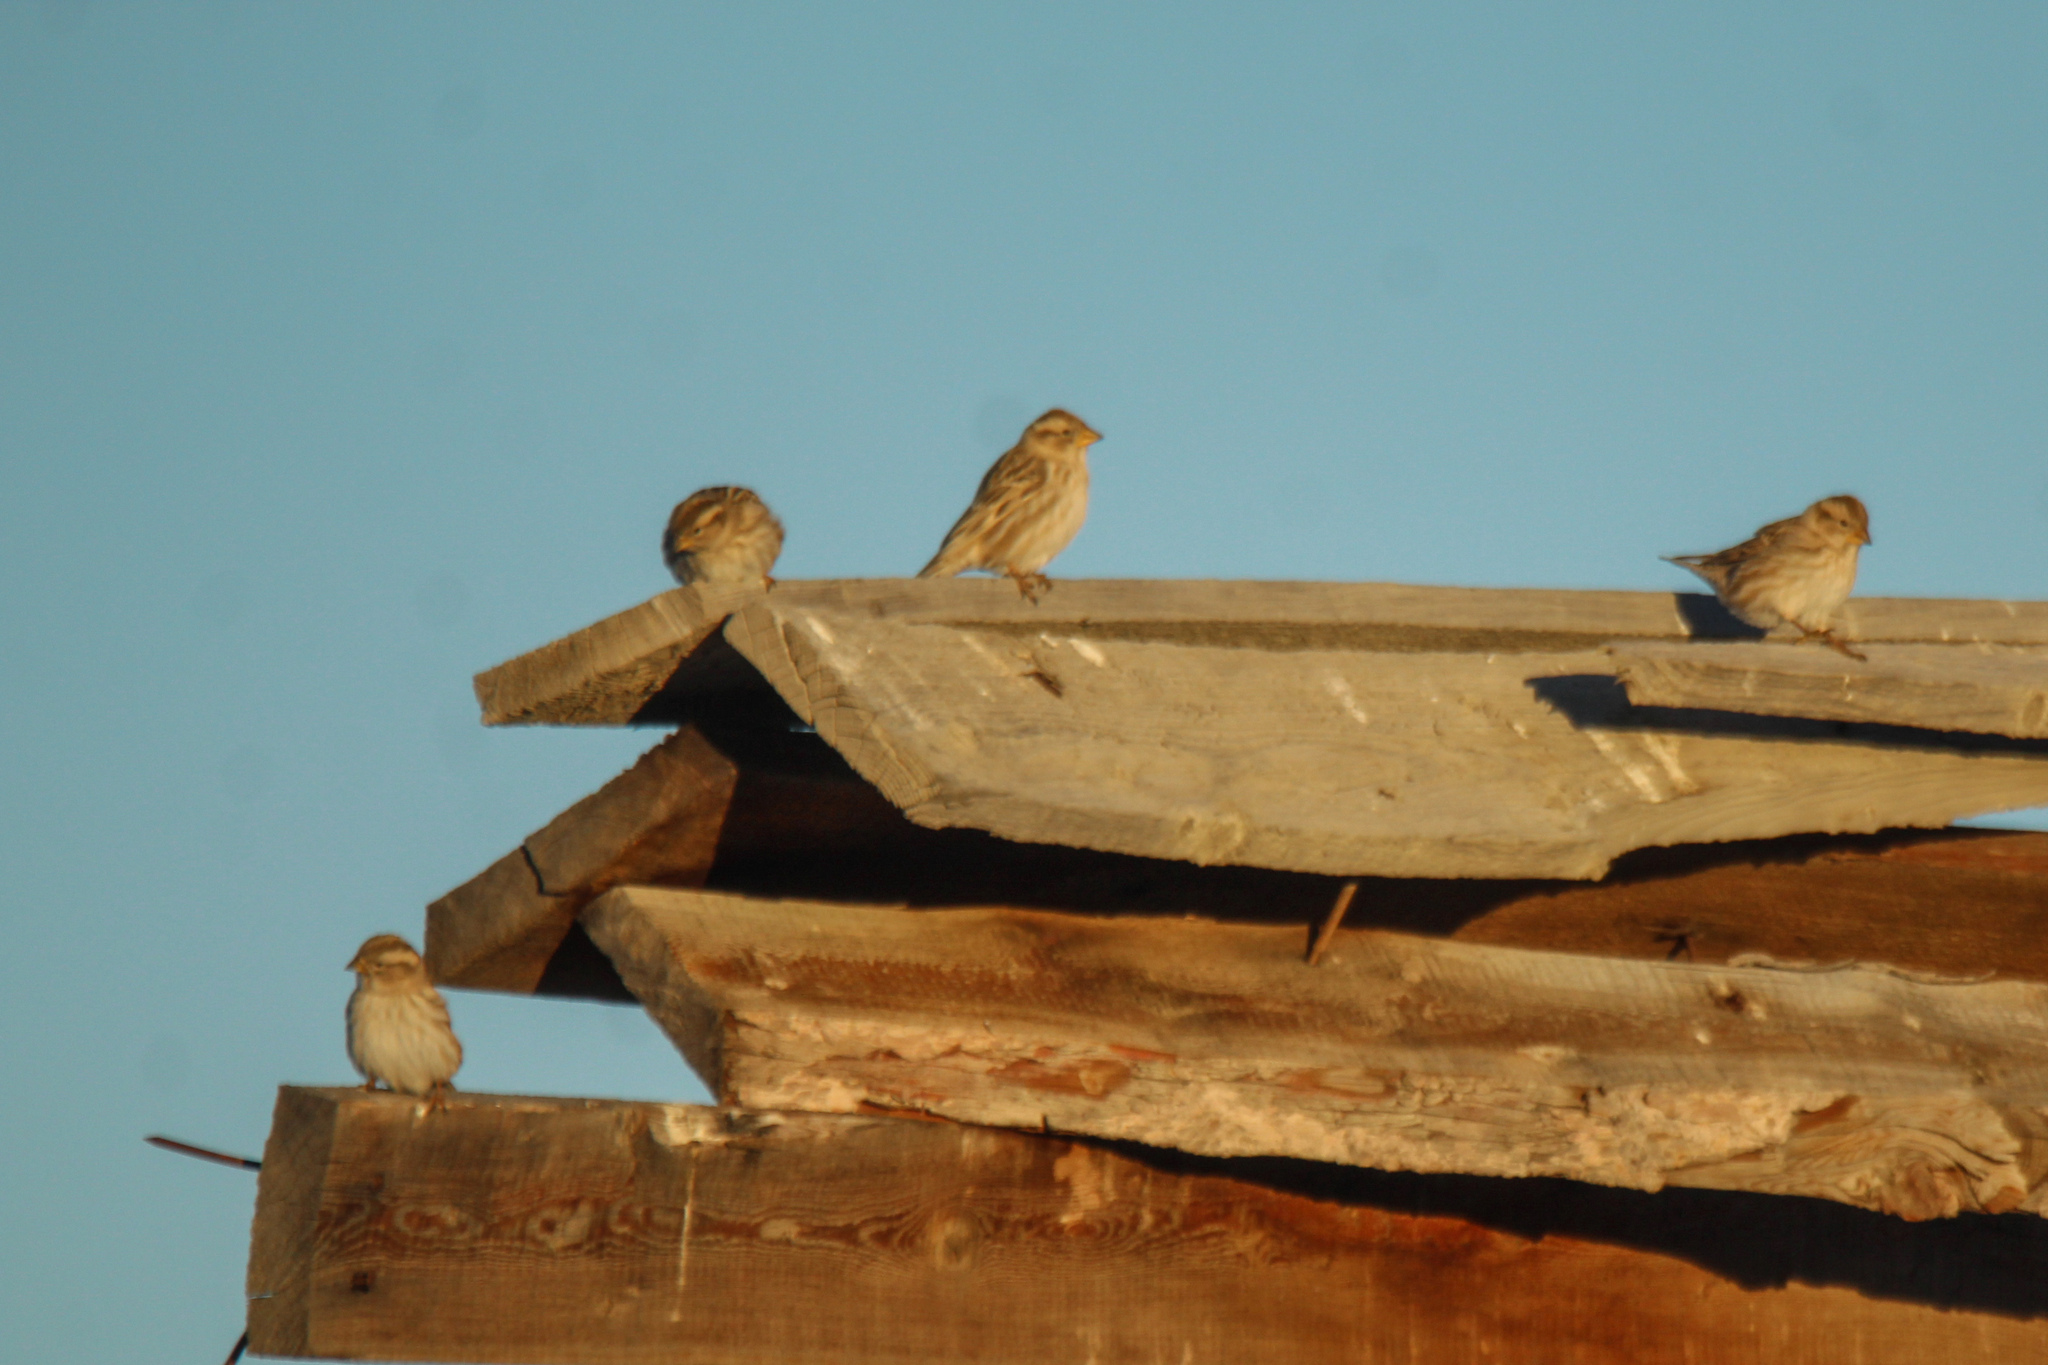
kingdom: Animalia
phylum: Chordata
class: Aves
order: Passeriformes
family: Passeridae
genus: Petronia
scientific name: Petronia petronia
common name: Rock sparrow
